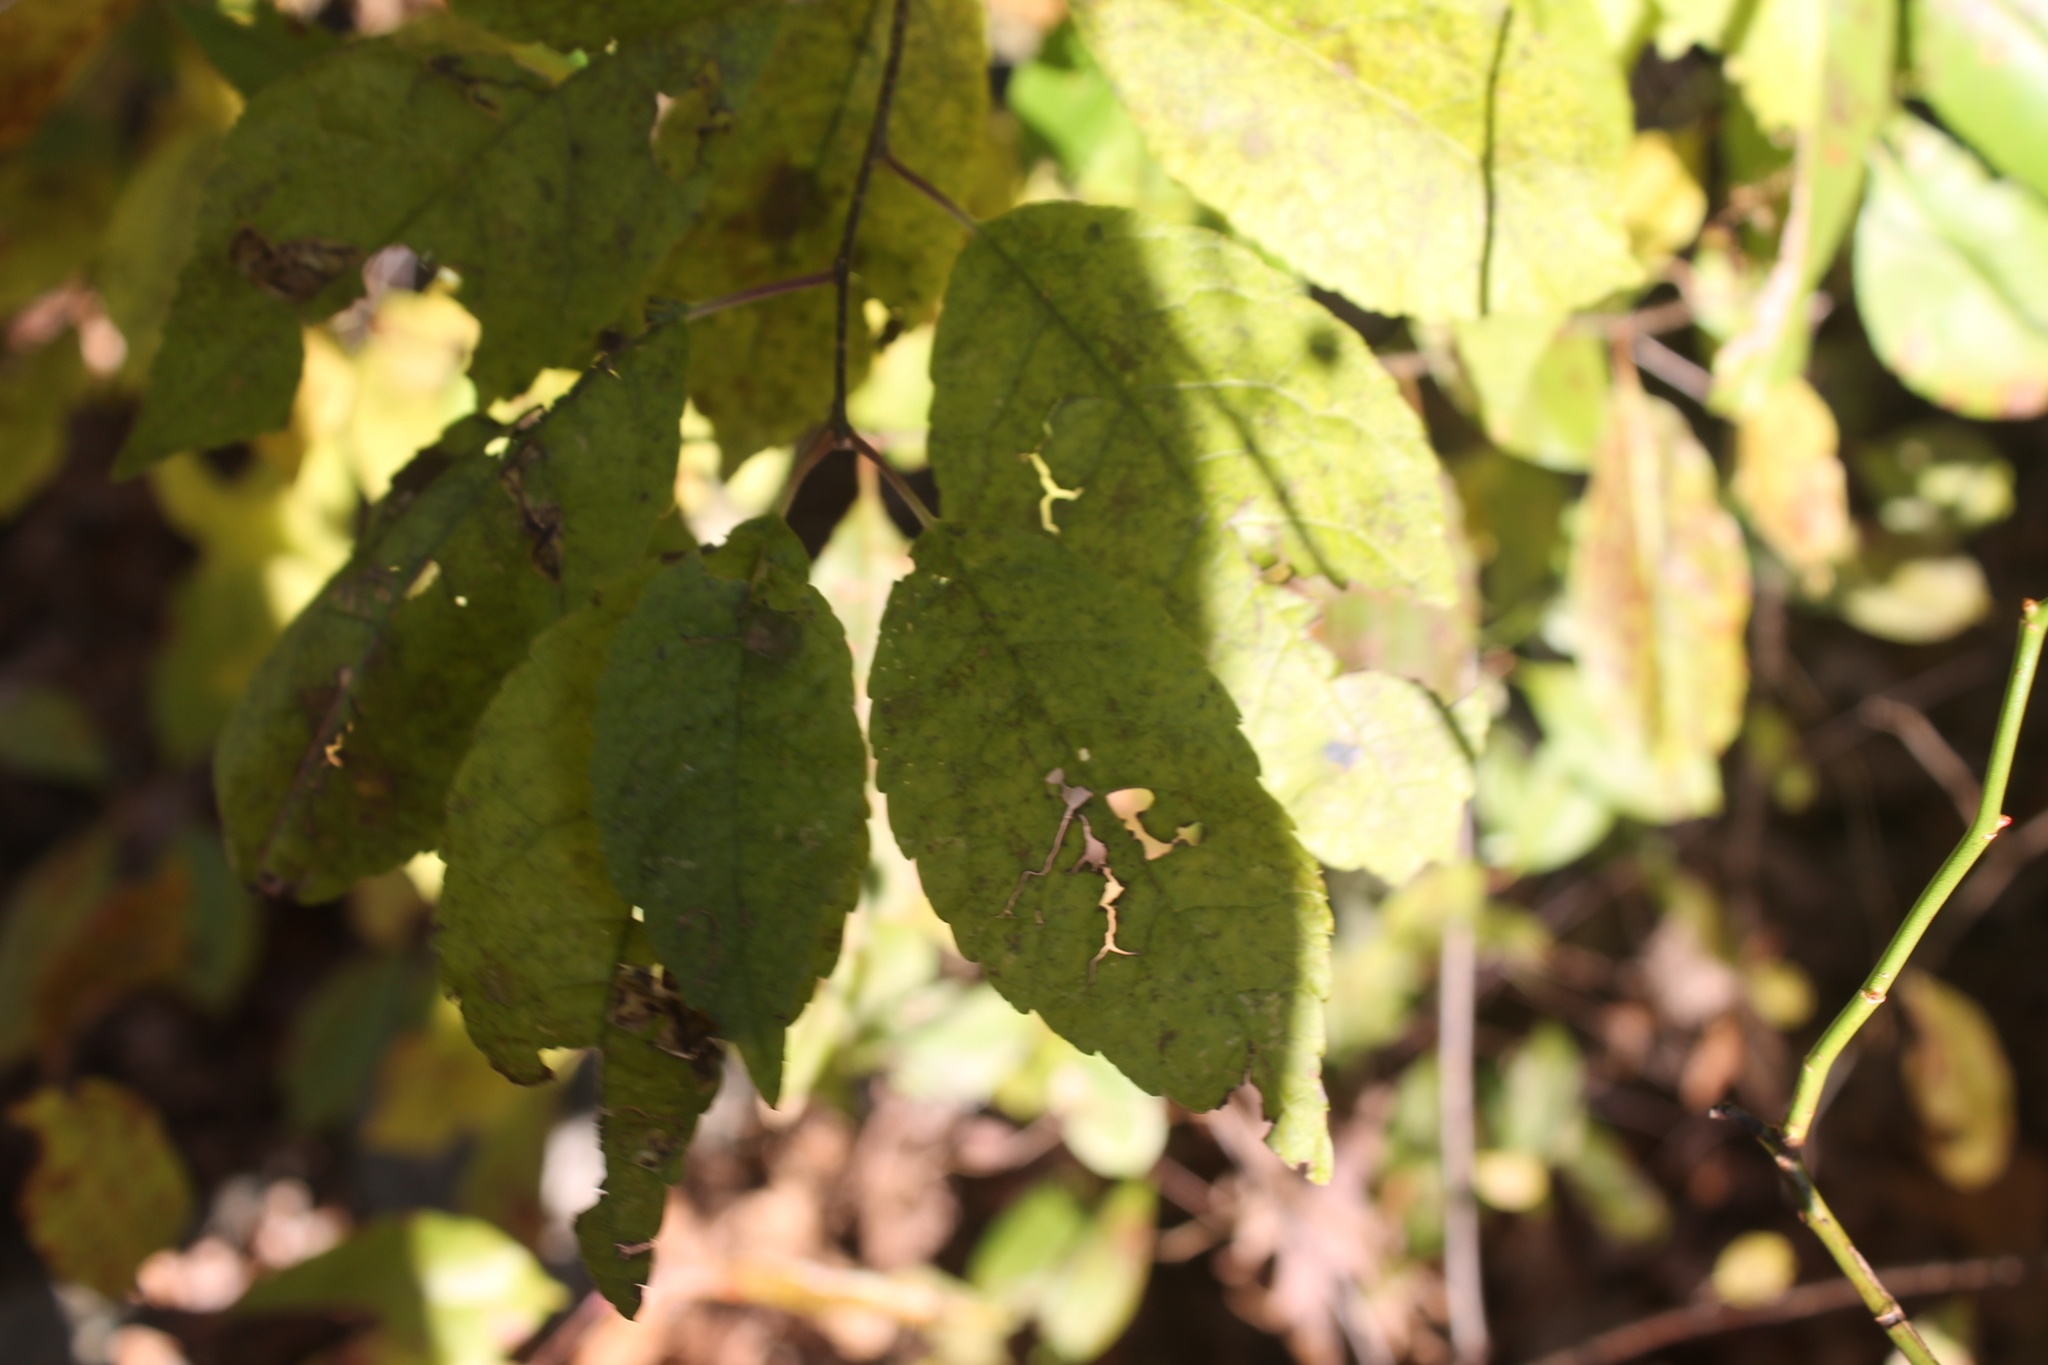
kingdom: Plantae
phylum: Tracheophyta
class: Magnoliopsida
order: Aquifoliales
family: Aquifoliaceae
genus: Ilex
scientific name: Ilex verticillata
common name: Virginia winterberry
